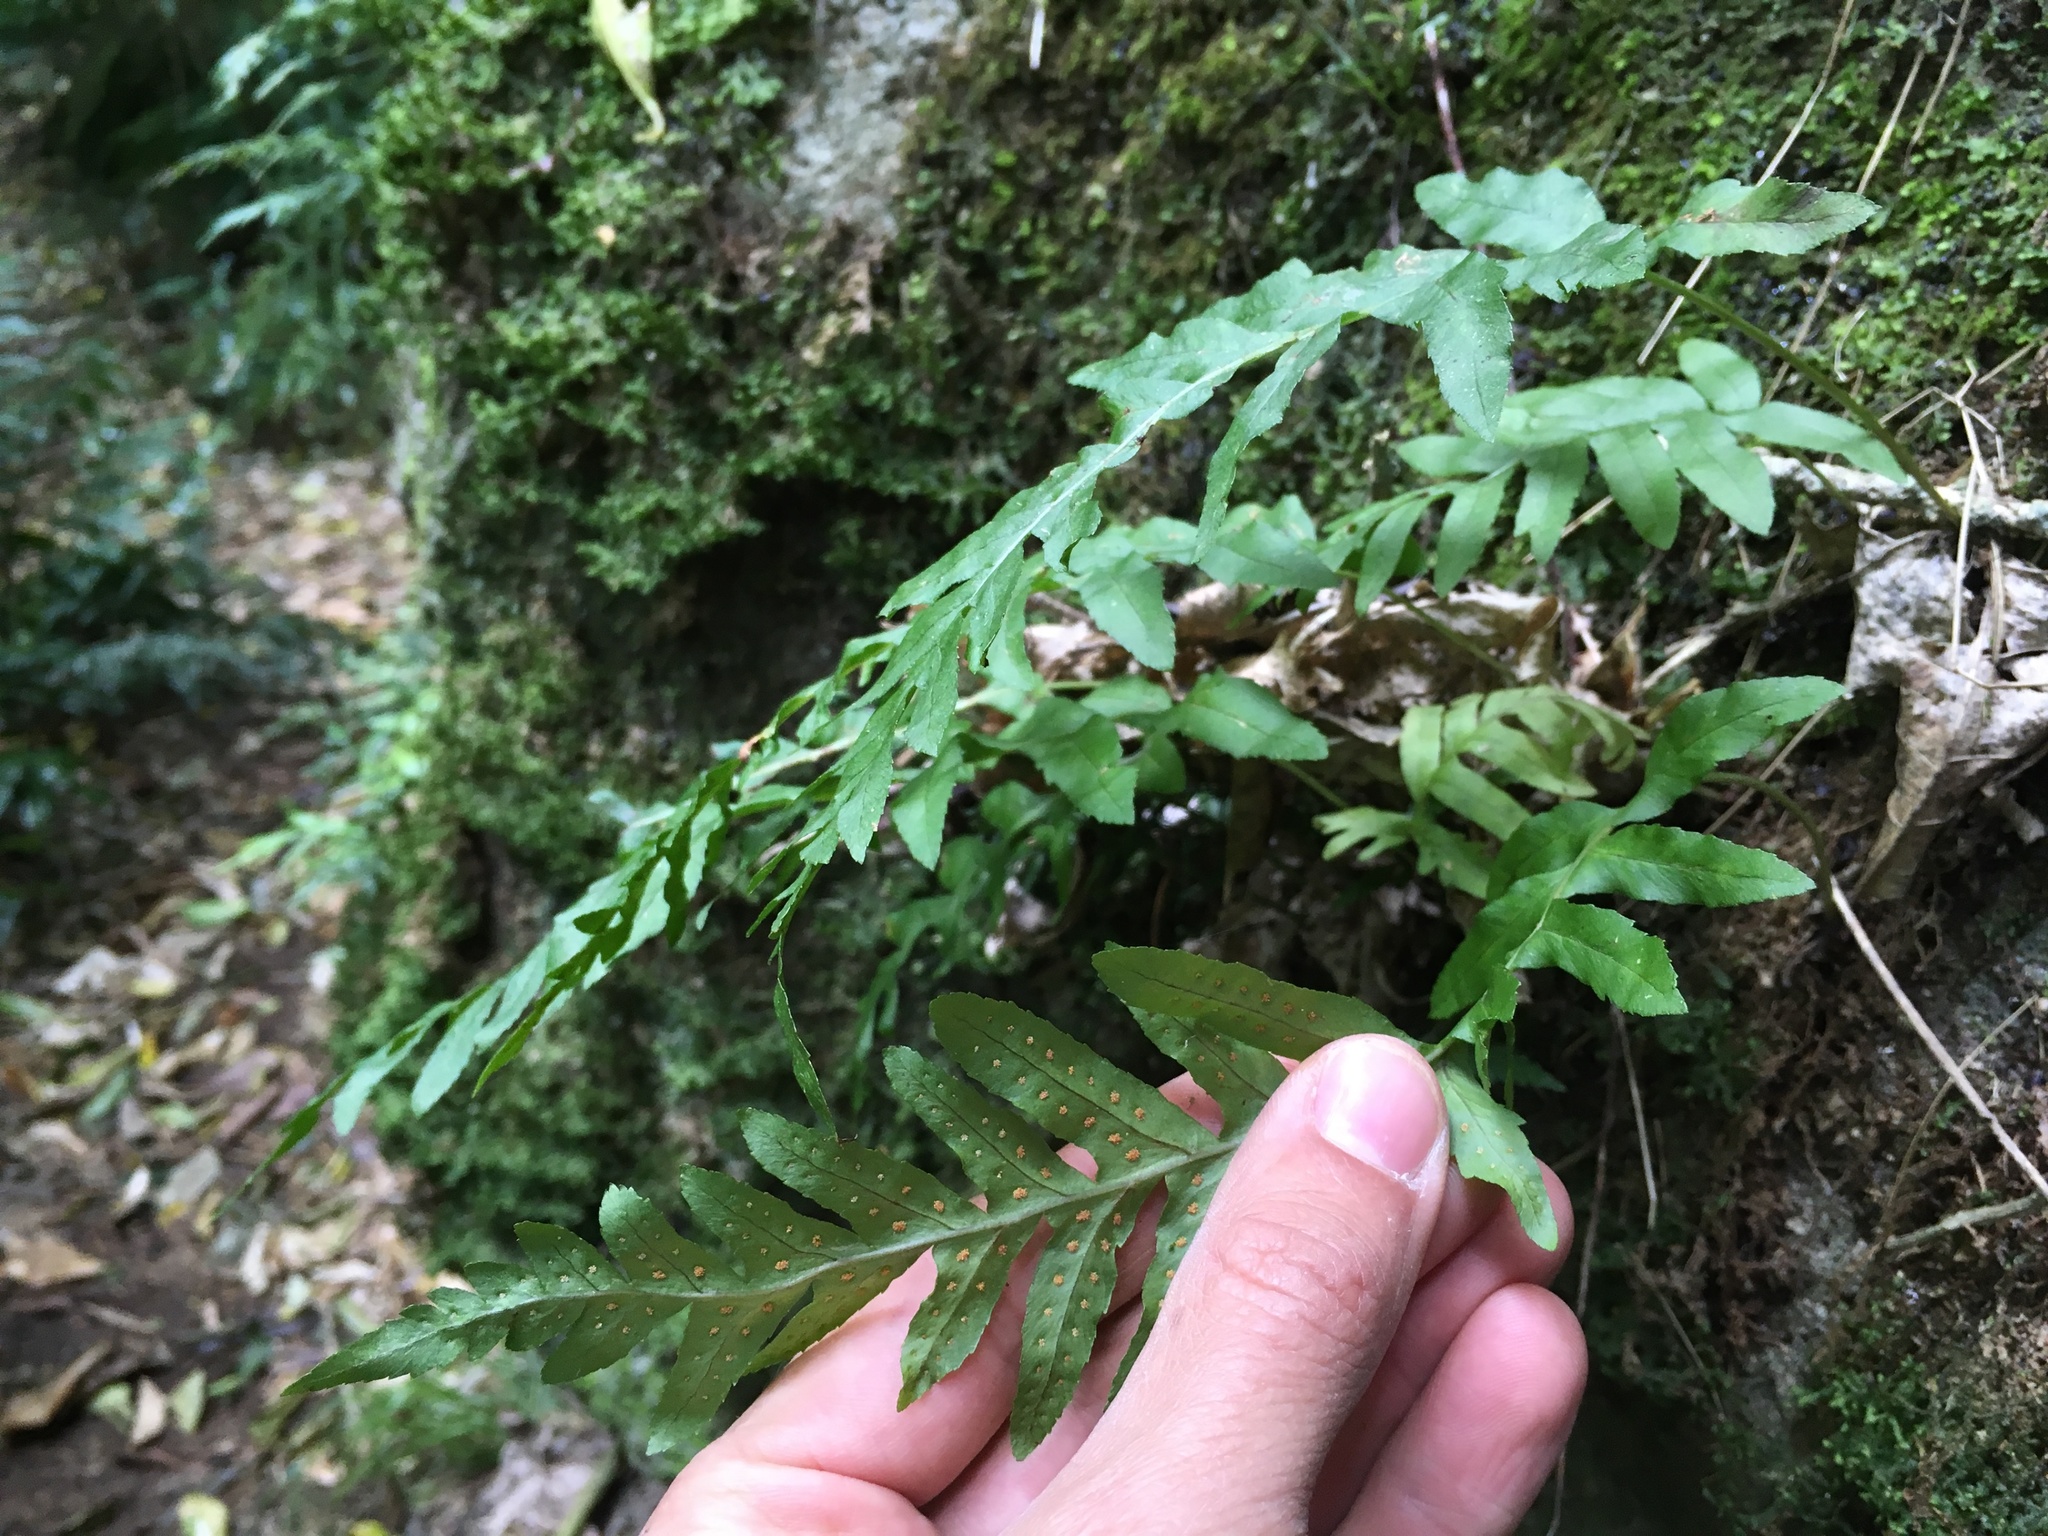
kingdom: Plantae
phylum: Tracheophyta
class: Polypodiopsida
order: Polypodiales
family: Polypodiaceae
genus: Polypodium
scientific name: Polypodium vulgare
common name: Common polypody
